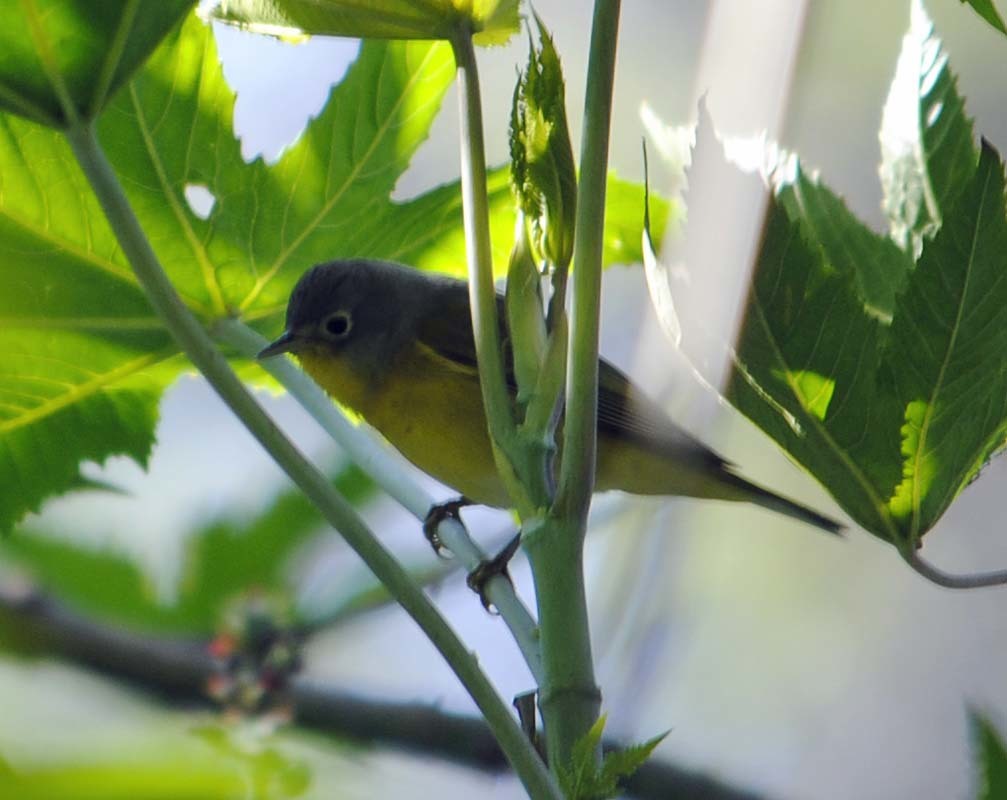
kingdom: Animalia
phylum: Chordata
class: Aves
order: Passeriformes
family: Parulidae
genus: Leiothlypis
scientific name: Leiothlypis ruficapilla
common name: Nashville warbler
